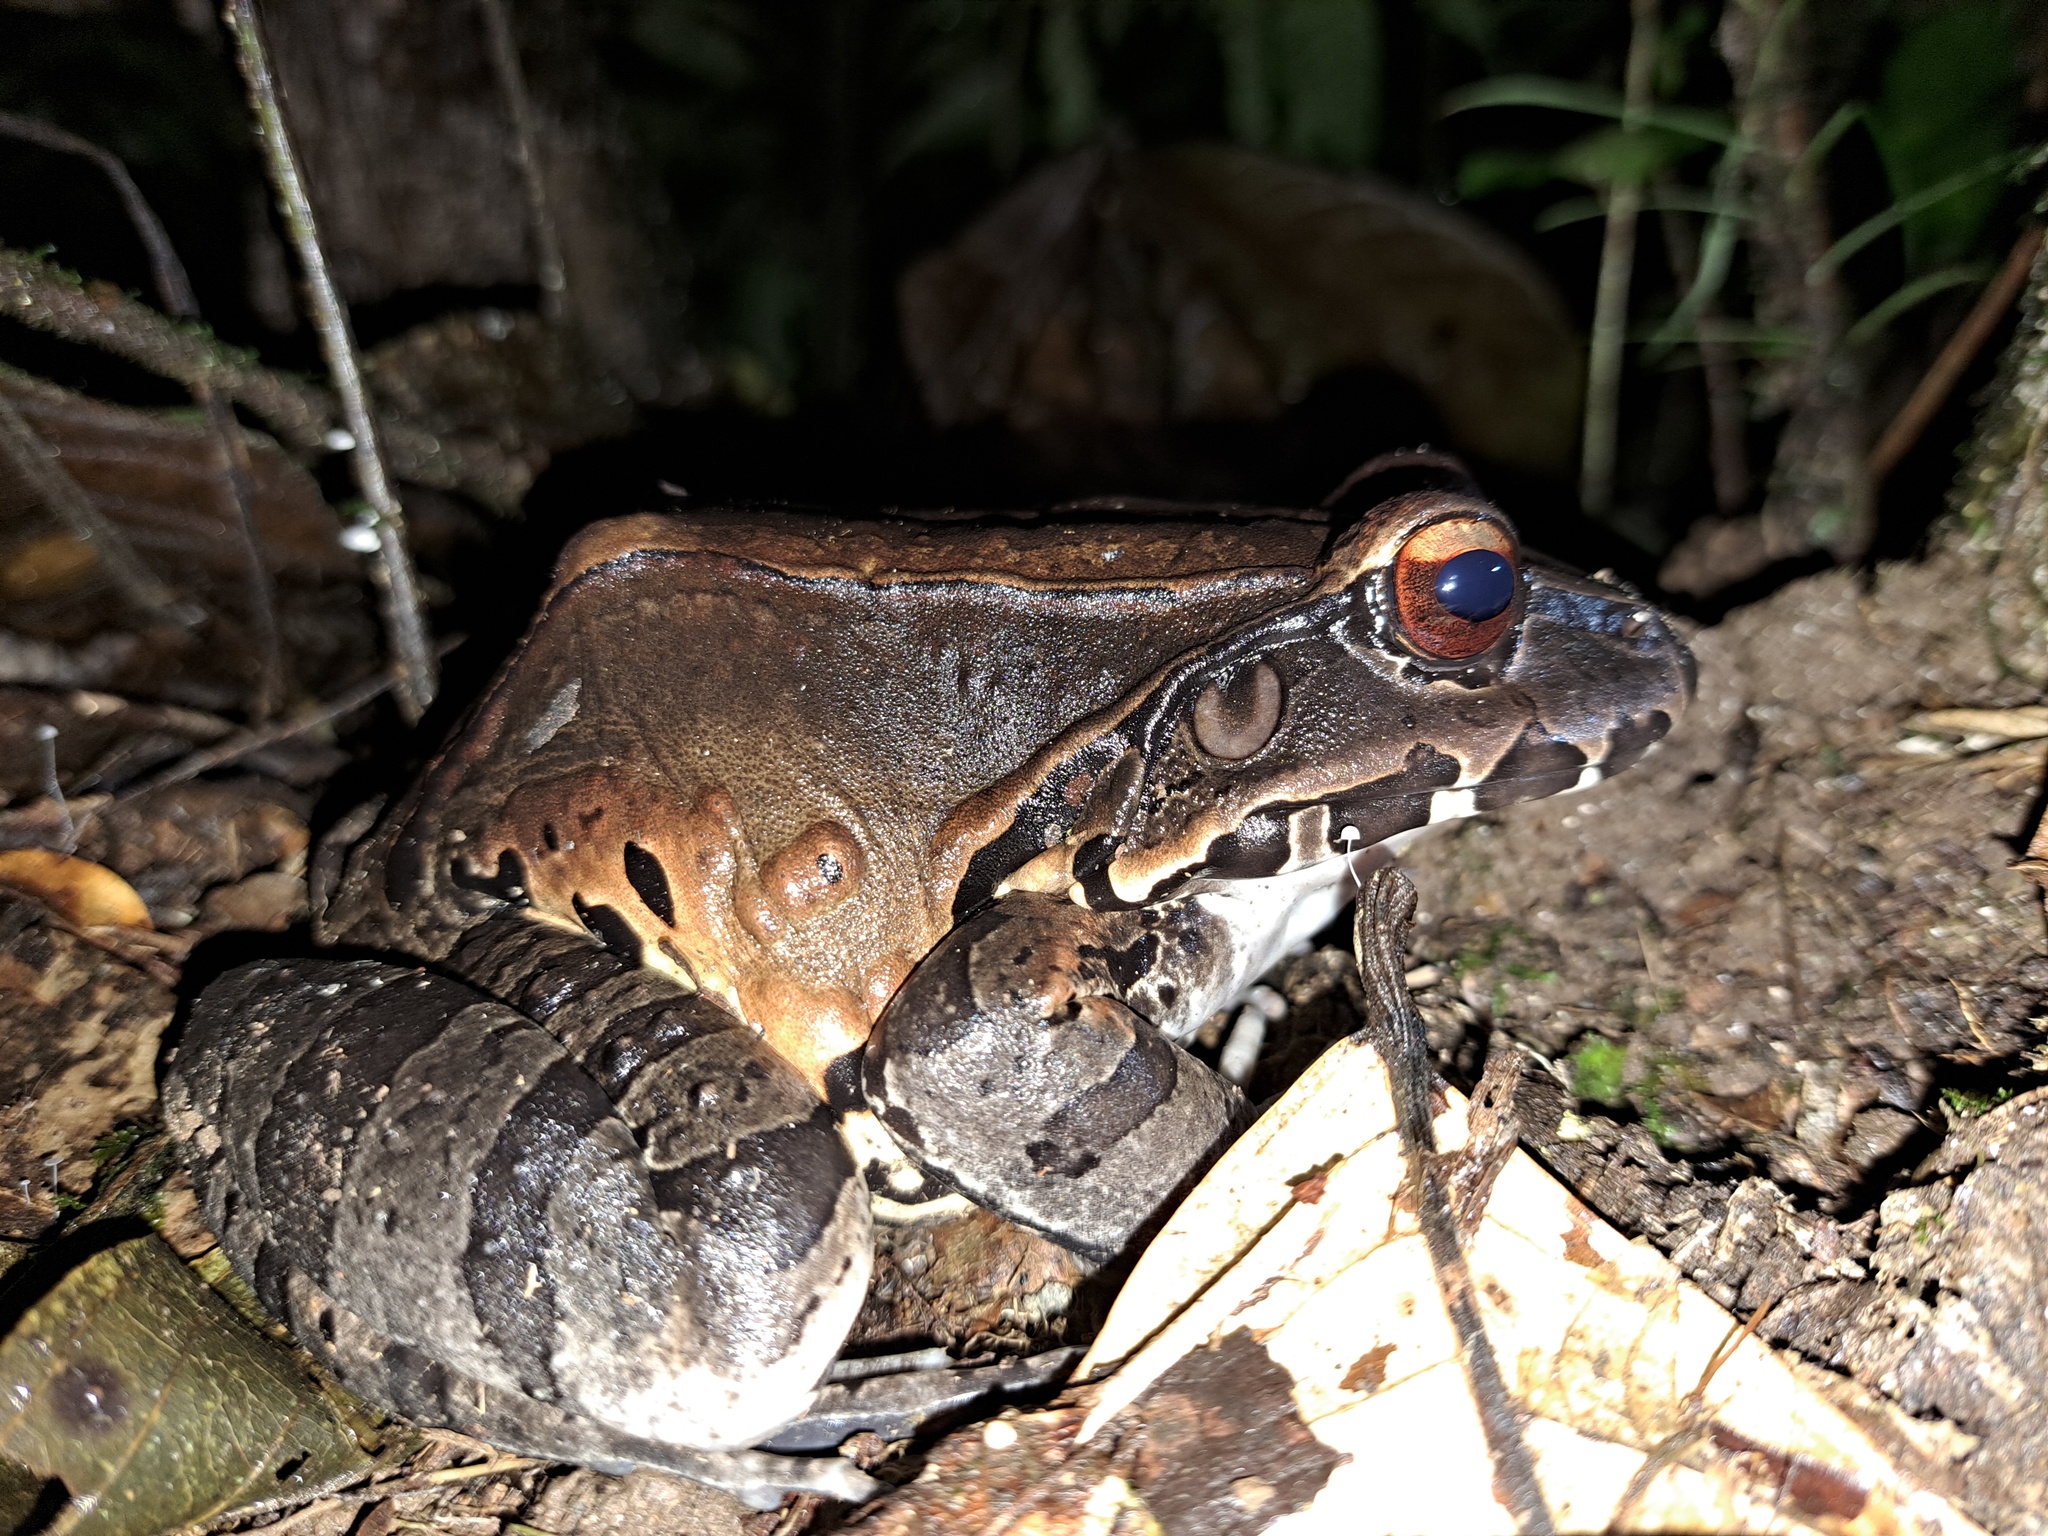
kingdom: Animalia
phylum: Chordata
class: Amphibia
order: Anura
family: Leptodactylidae
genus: Leptodactylus
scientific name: Leptodactylus pentadactylus
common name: Smoky jungle frog
